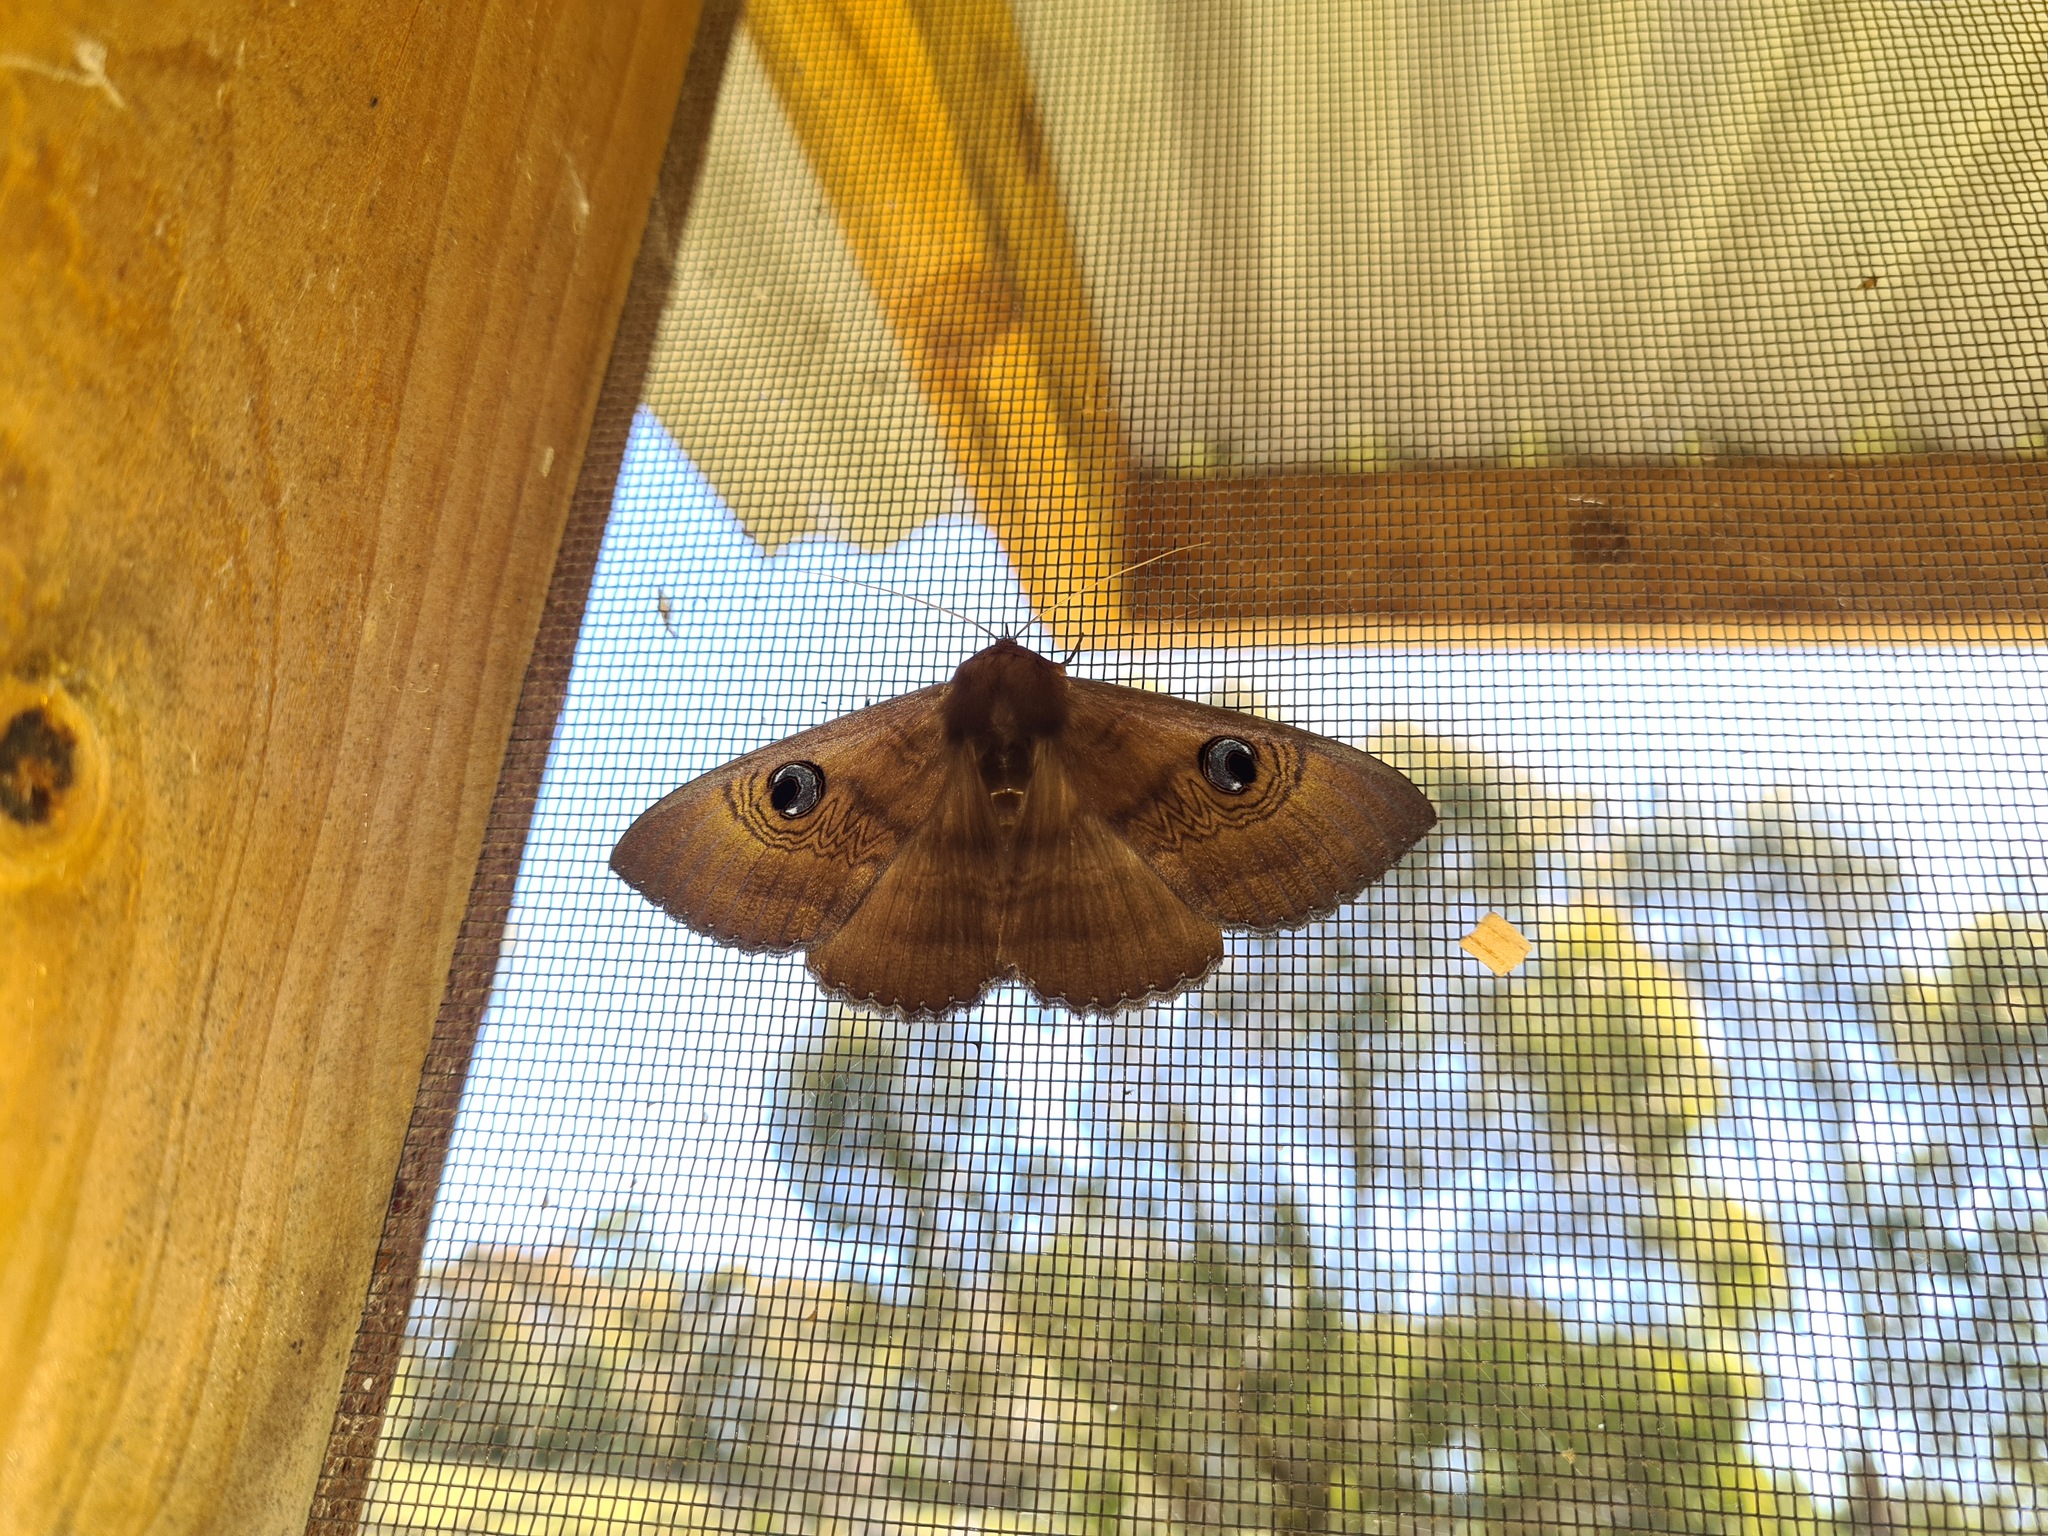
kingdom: Animalia
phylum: Arthropoda
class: Insecta
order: Lepidoptera
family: Erebidae
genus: Dasypodia
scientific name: Dasypodia selenophora
